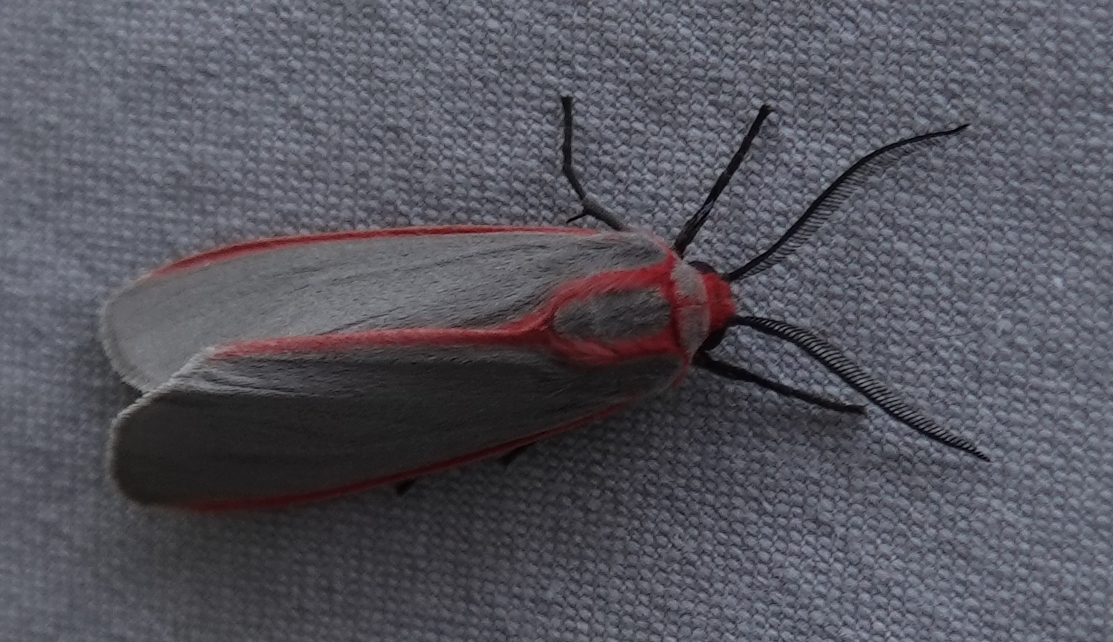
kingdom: Animalia
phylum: Arthropoda
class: Insecta
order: Lepidoptera
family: Erebidae
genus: Pygarctia
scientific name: Pygarctia spraguei
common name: Sprague's pygarctica
